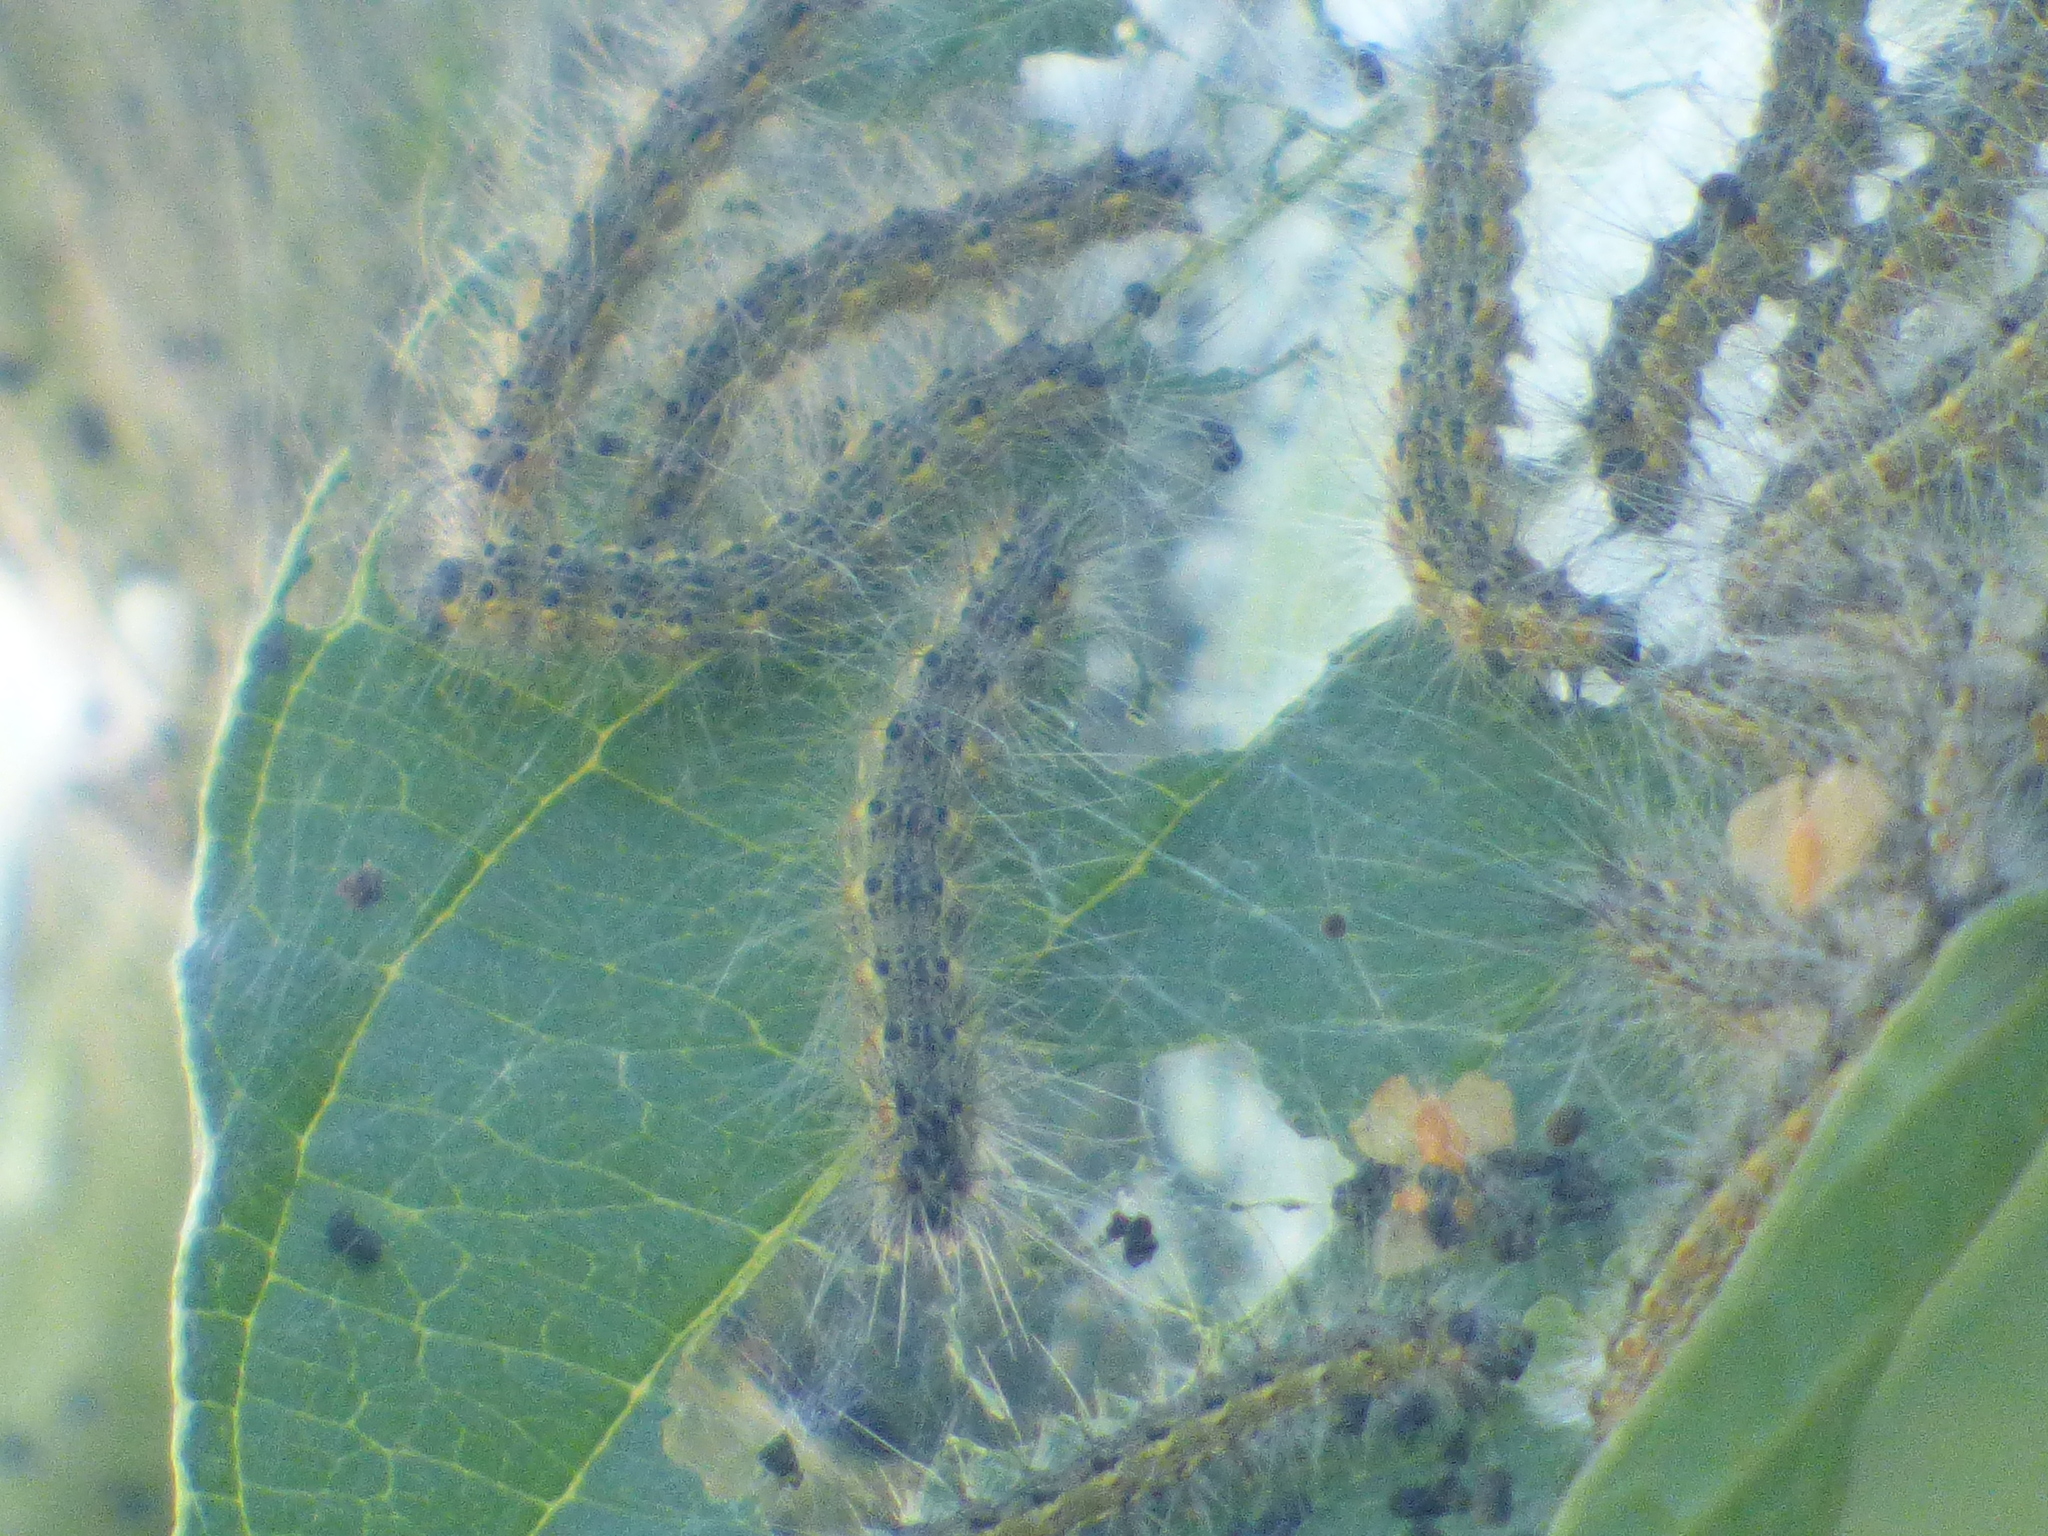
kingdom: Animalia
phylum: Arthropoda
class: Insecta
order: Lepidoptera
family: Erebidae
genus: Hyphantria
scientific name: Hyphantria cunea
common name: American white moth
